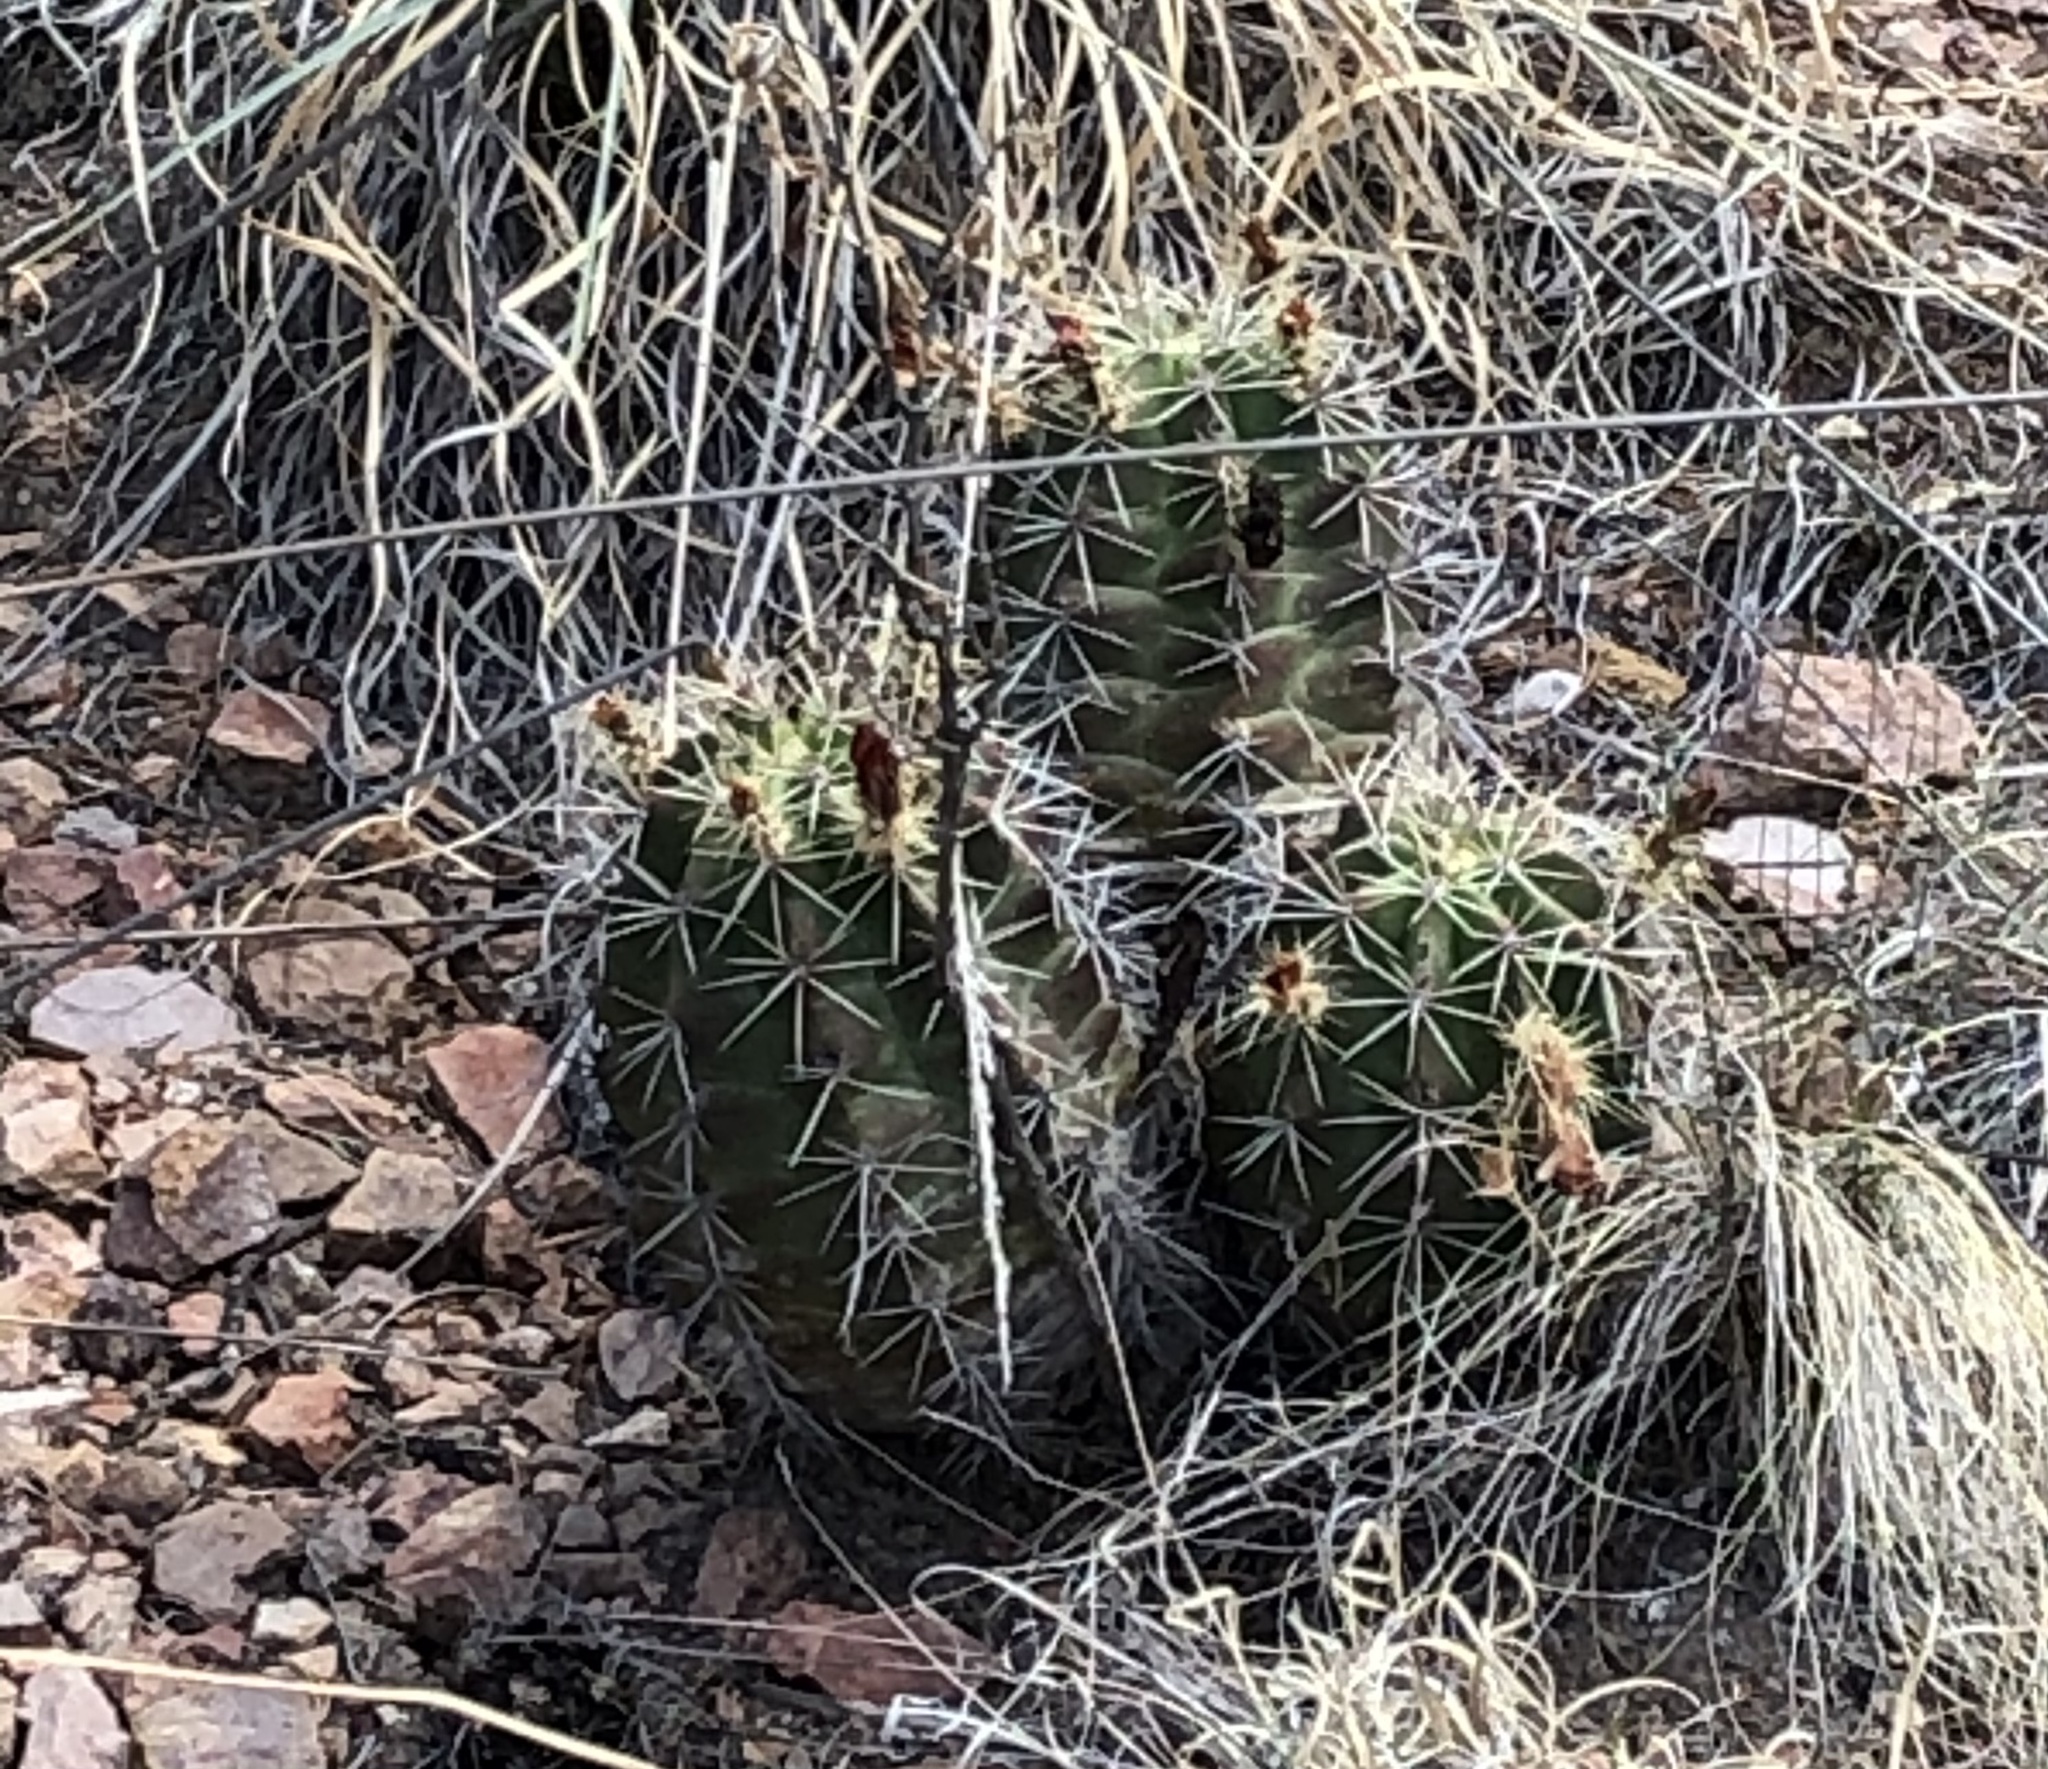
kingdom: Plantae
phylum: Tracheophyta
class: Magnoliopsida
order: Caryophyllales
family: Cactaceae
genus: Echinocereus
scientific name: Echinocereus coccineus
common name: Scarlet hedgehog cactus
